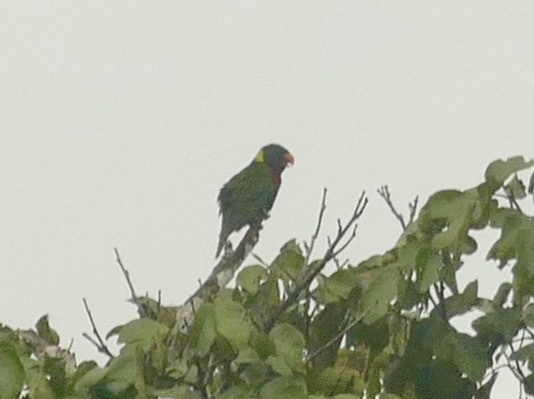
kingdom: Animalia
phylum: Chordata
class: Aves
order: Psittaciformes
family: Psittacidae
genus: Trichoglossus
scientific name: Trichoglossus haematodus
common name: Coconut lorikeet
